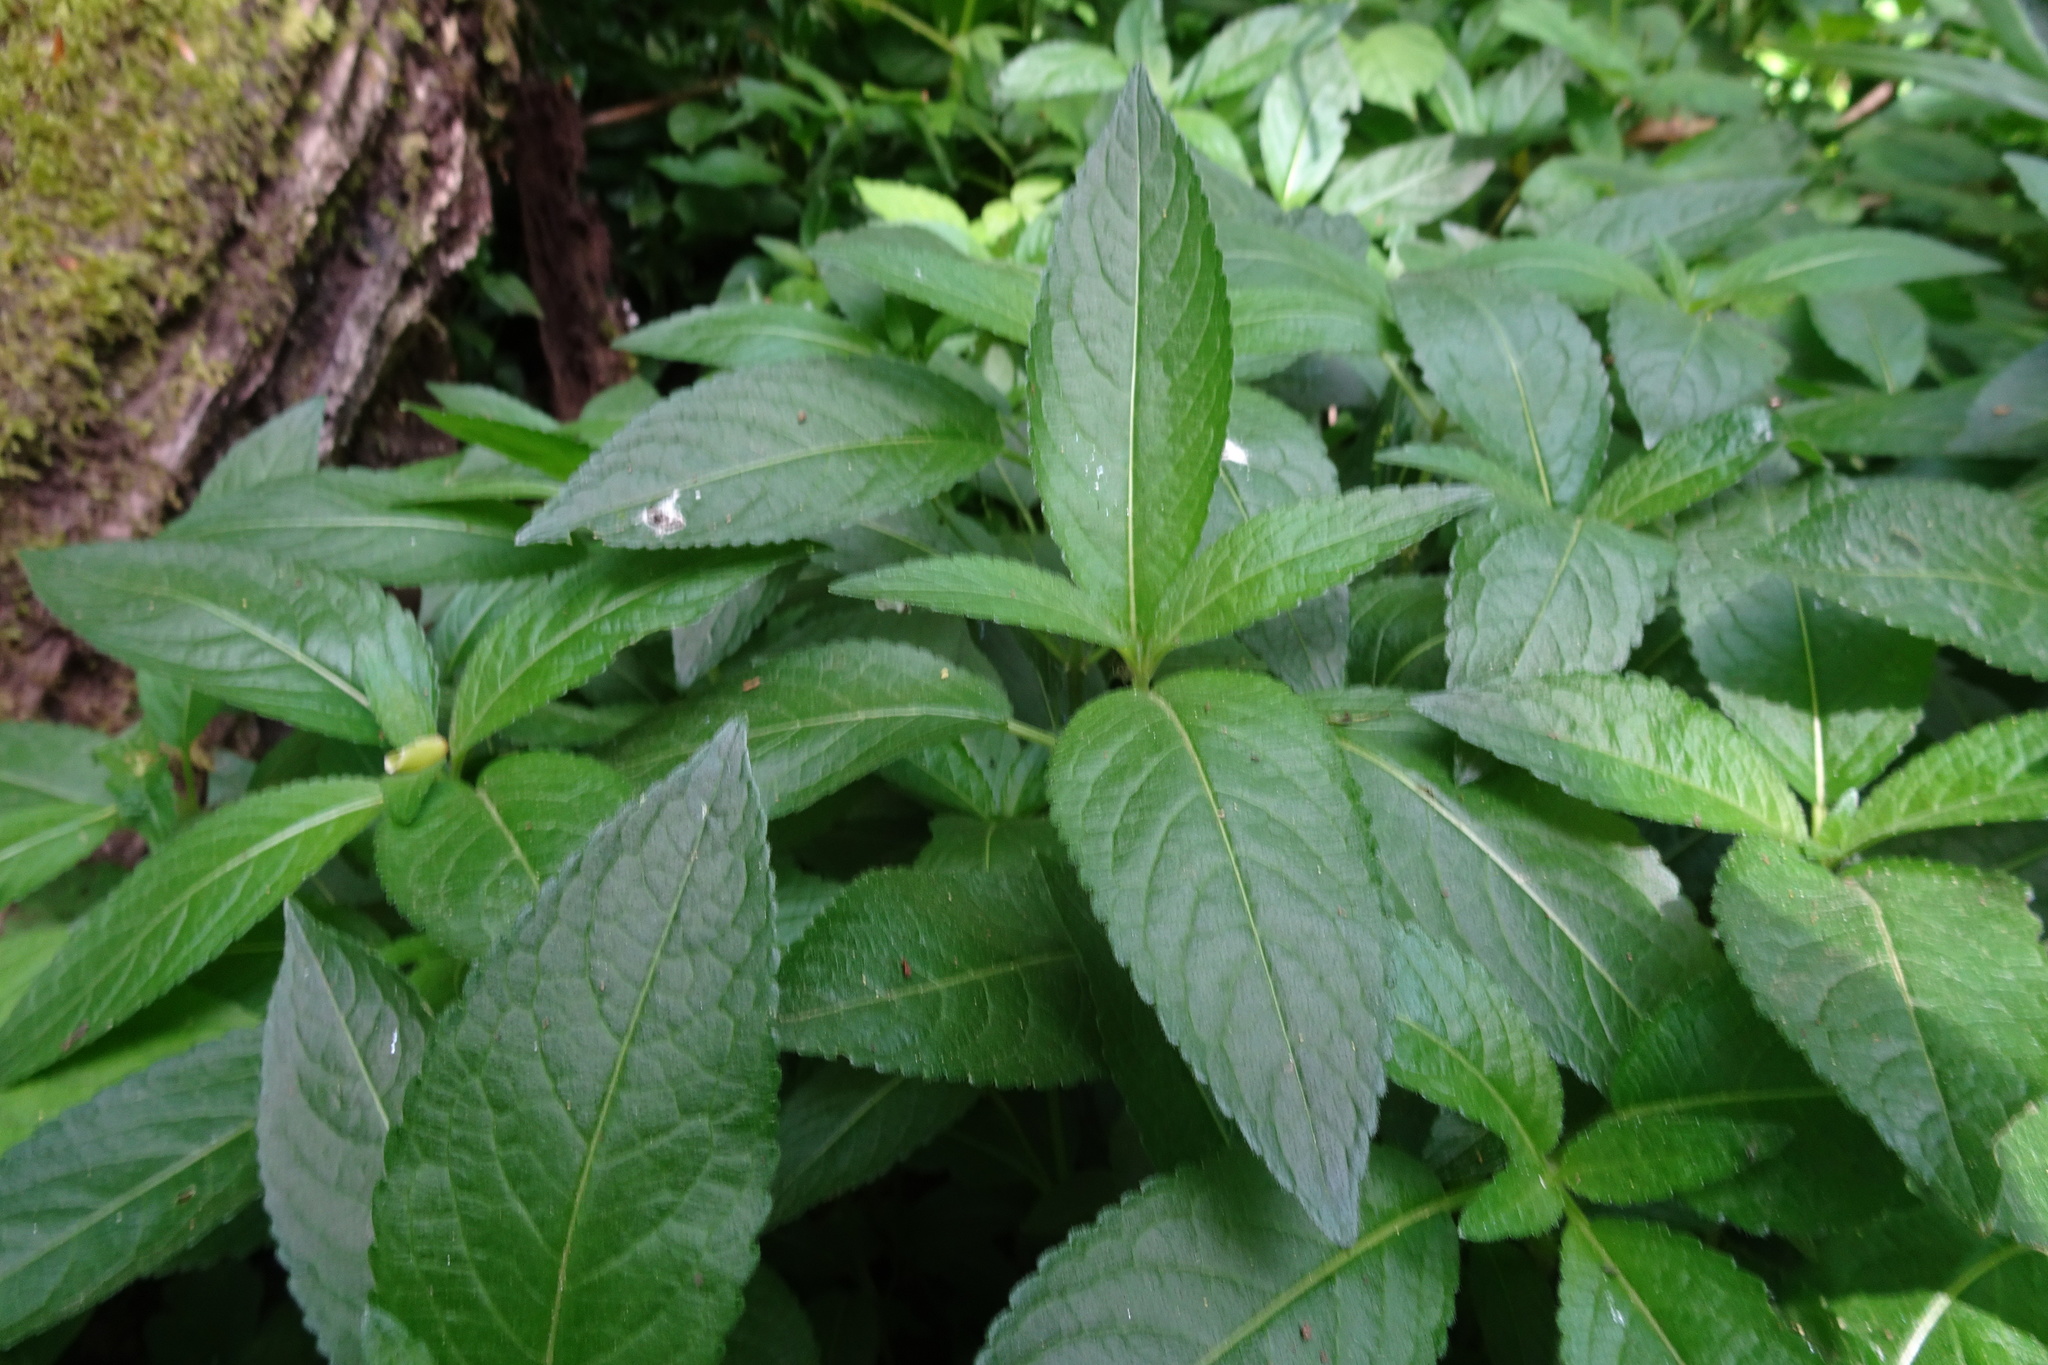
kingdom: Plantae
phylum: Tracheophyta
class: Magnoliopsida
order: Malpighiales
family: Euphorbiaceae
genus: Mercurialis
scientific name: Mercurialis perennis
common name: Dog mercury
